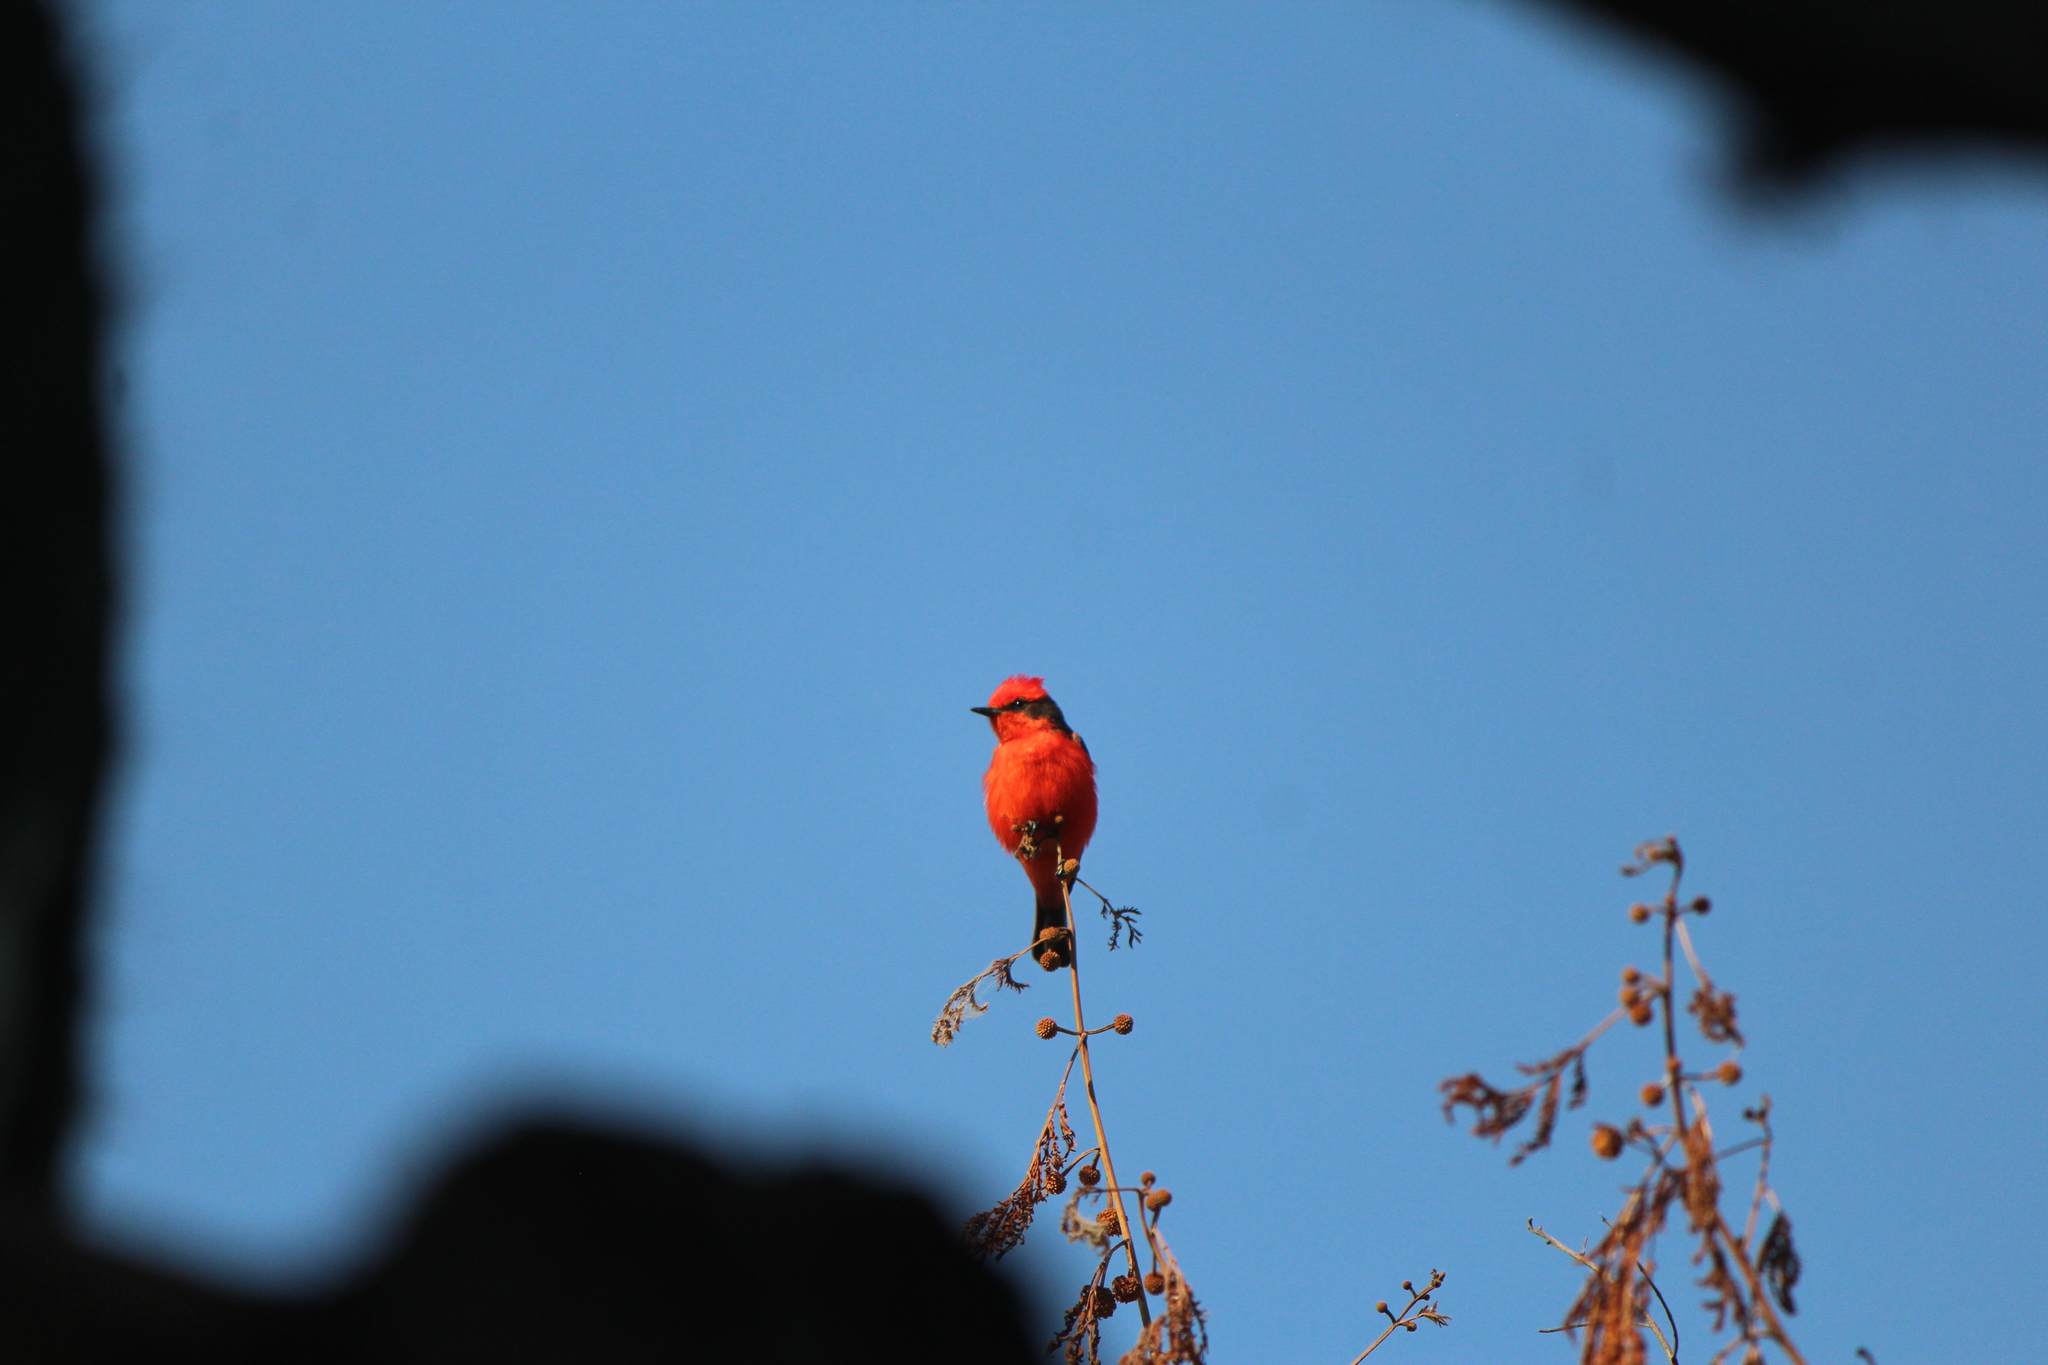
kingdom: Animalia
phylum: Chordata
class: Aves
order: Passeriformes
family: Tyrannidae
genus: Pyrocephalus
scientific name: Pyrocephalus rubinus
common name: Vermilion flycatcher
